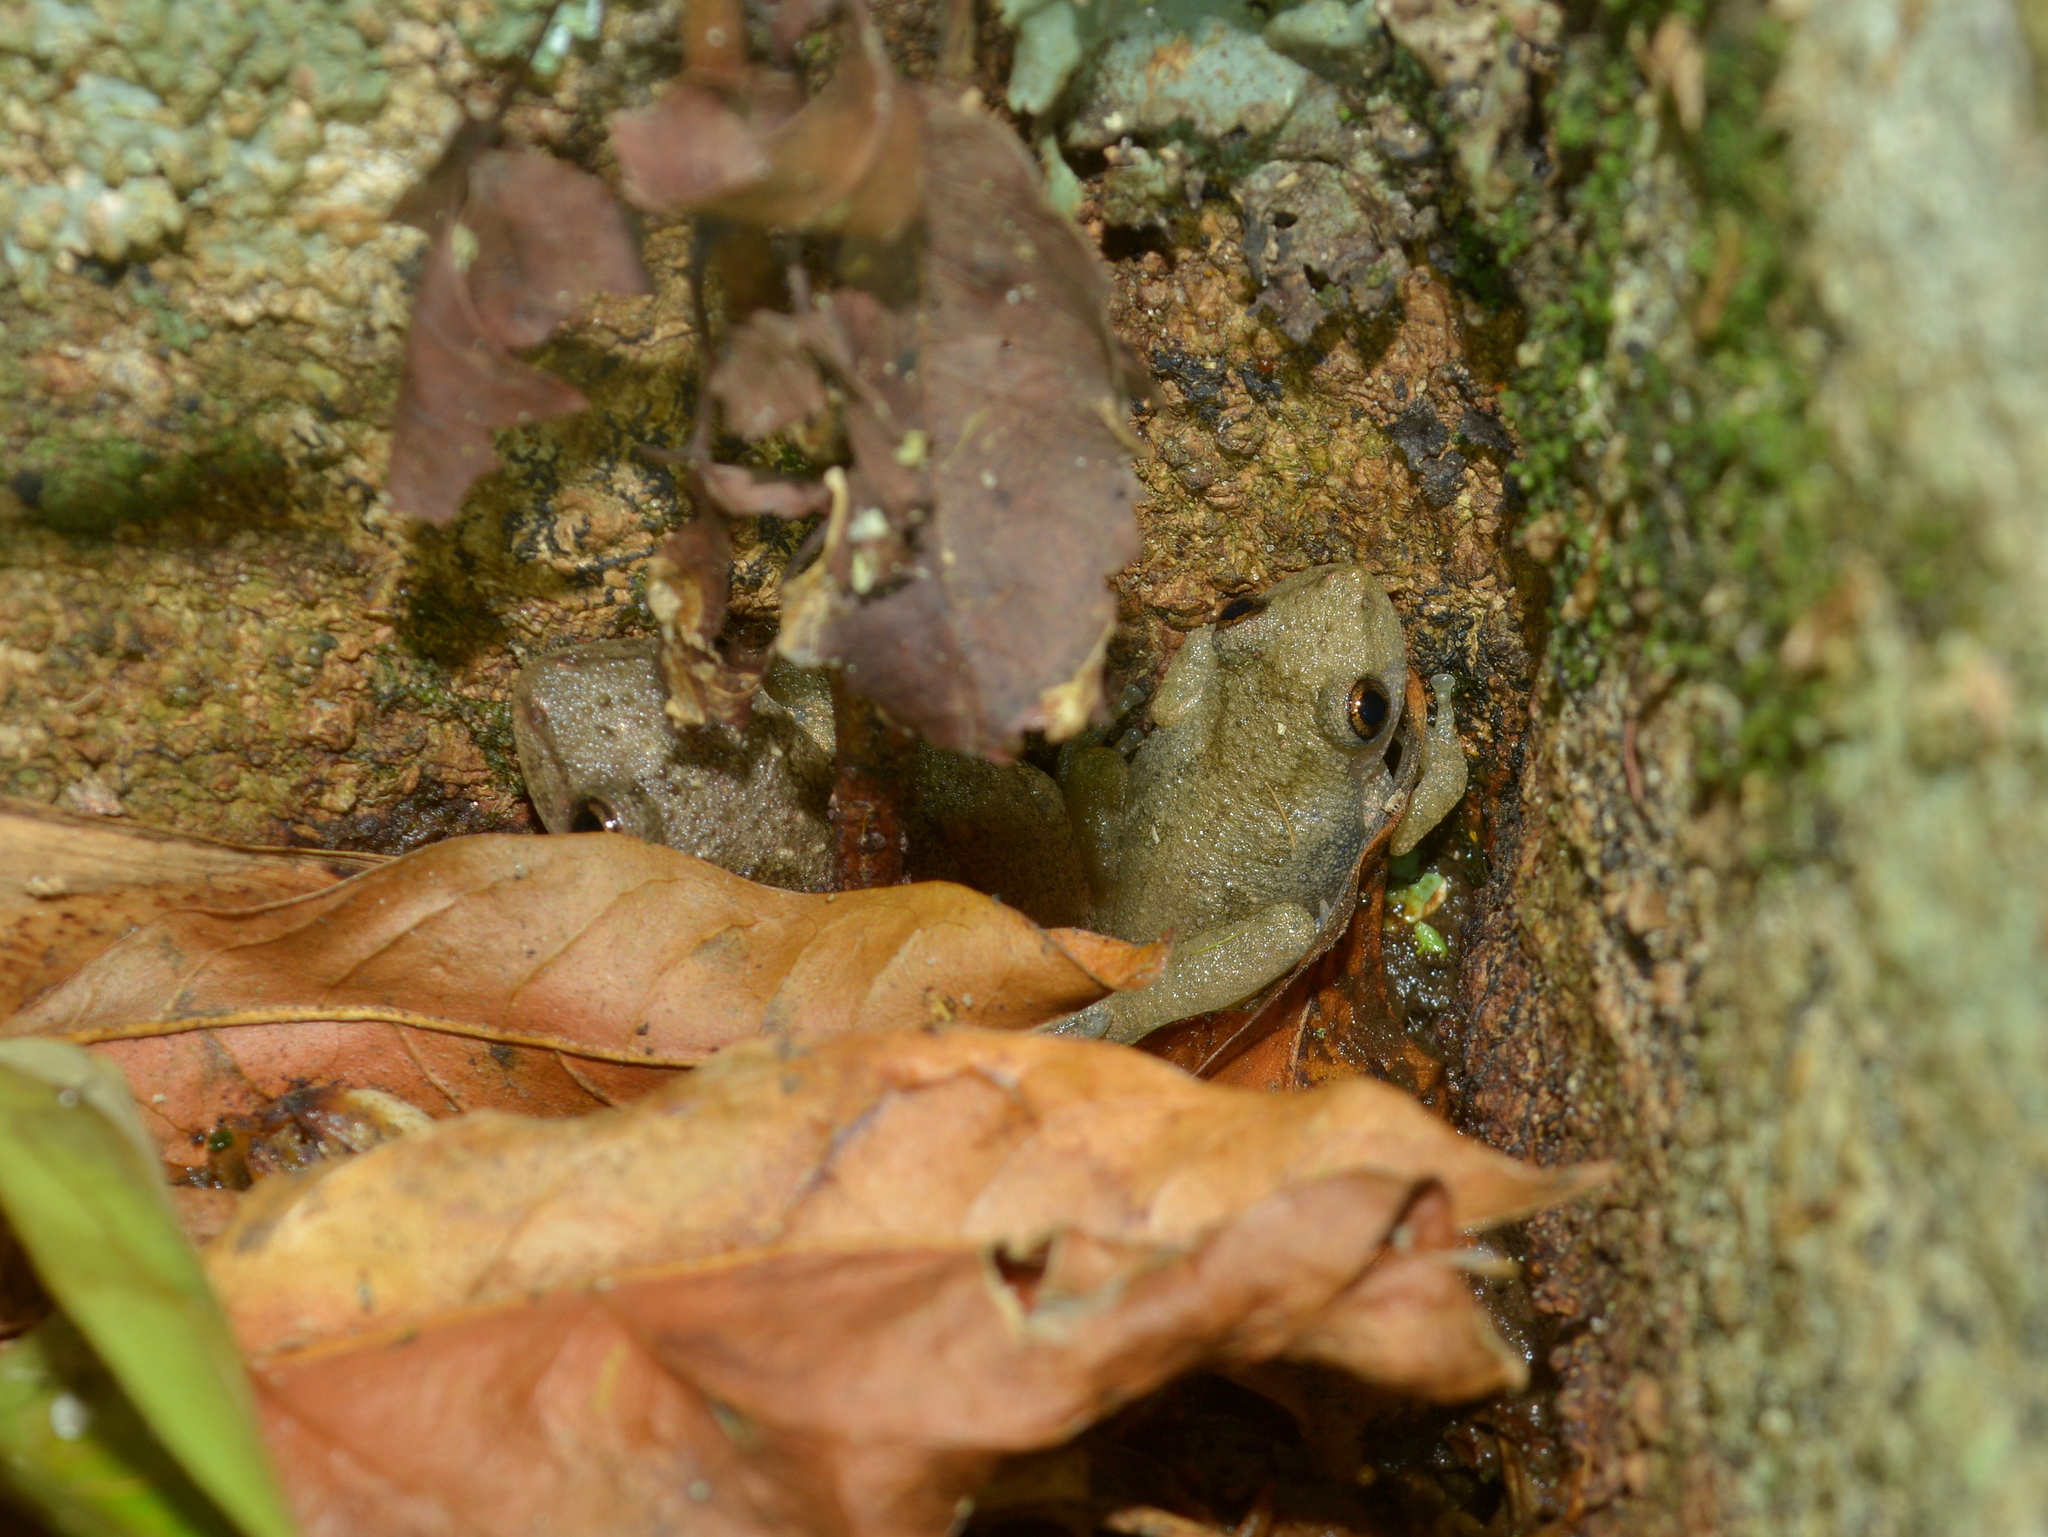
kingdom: Animalia
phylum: Chordata
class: Amphibia
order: Anura
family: Hylidae
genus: Scinax
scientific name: Scinax granulatus
